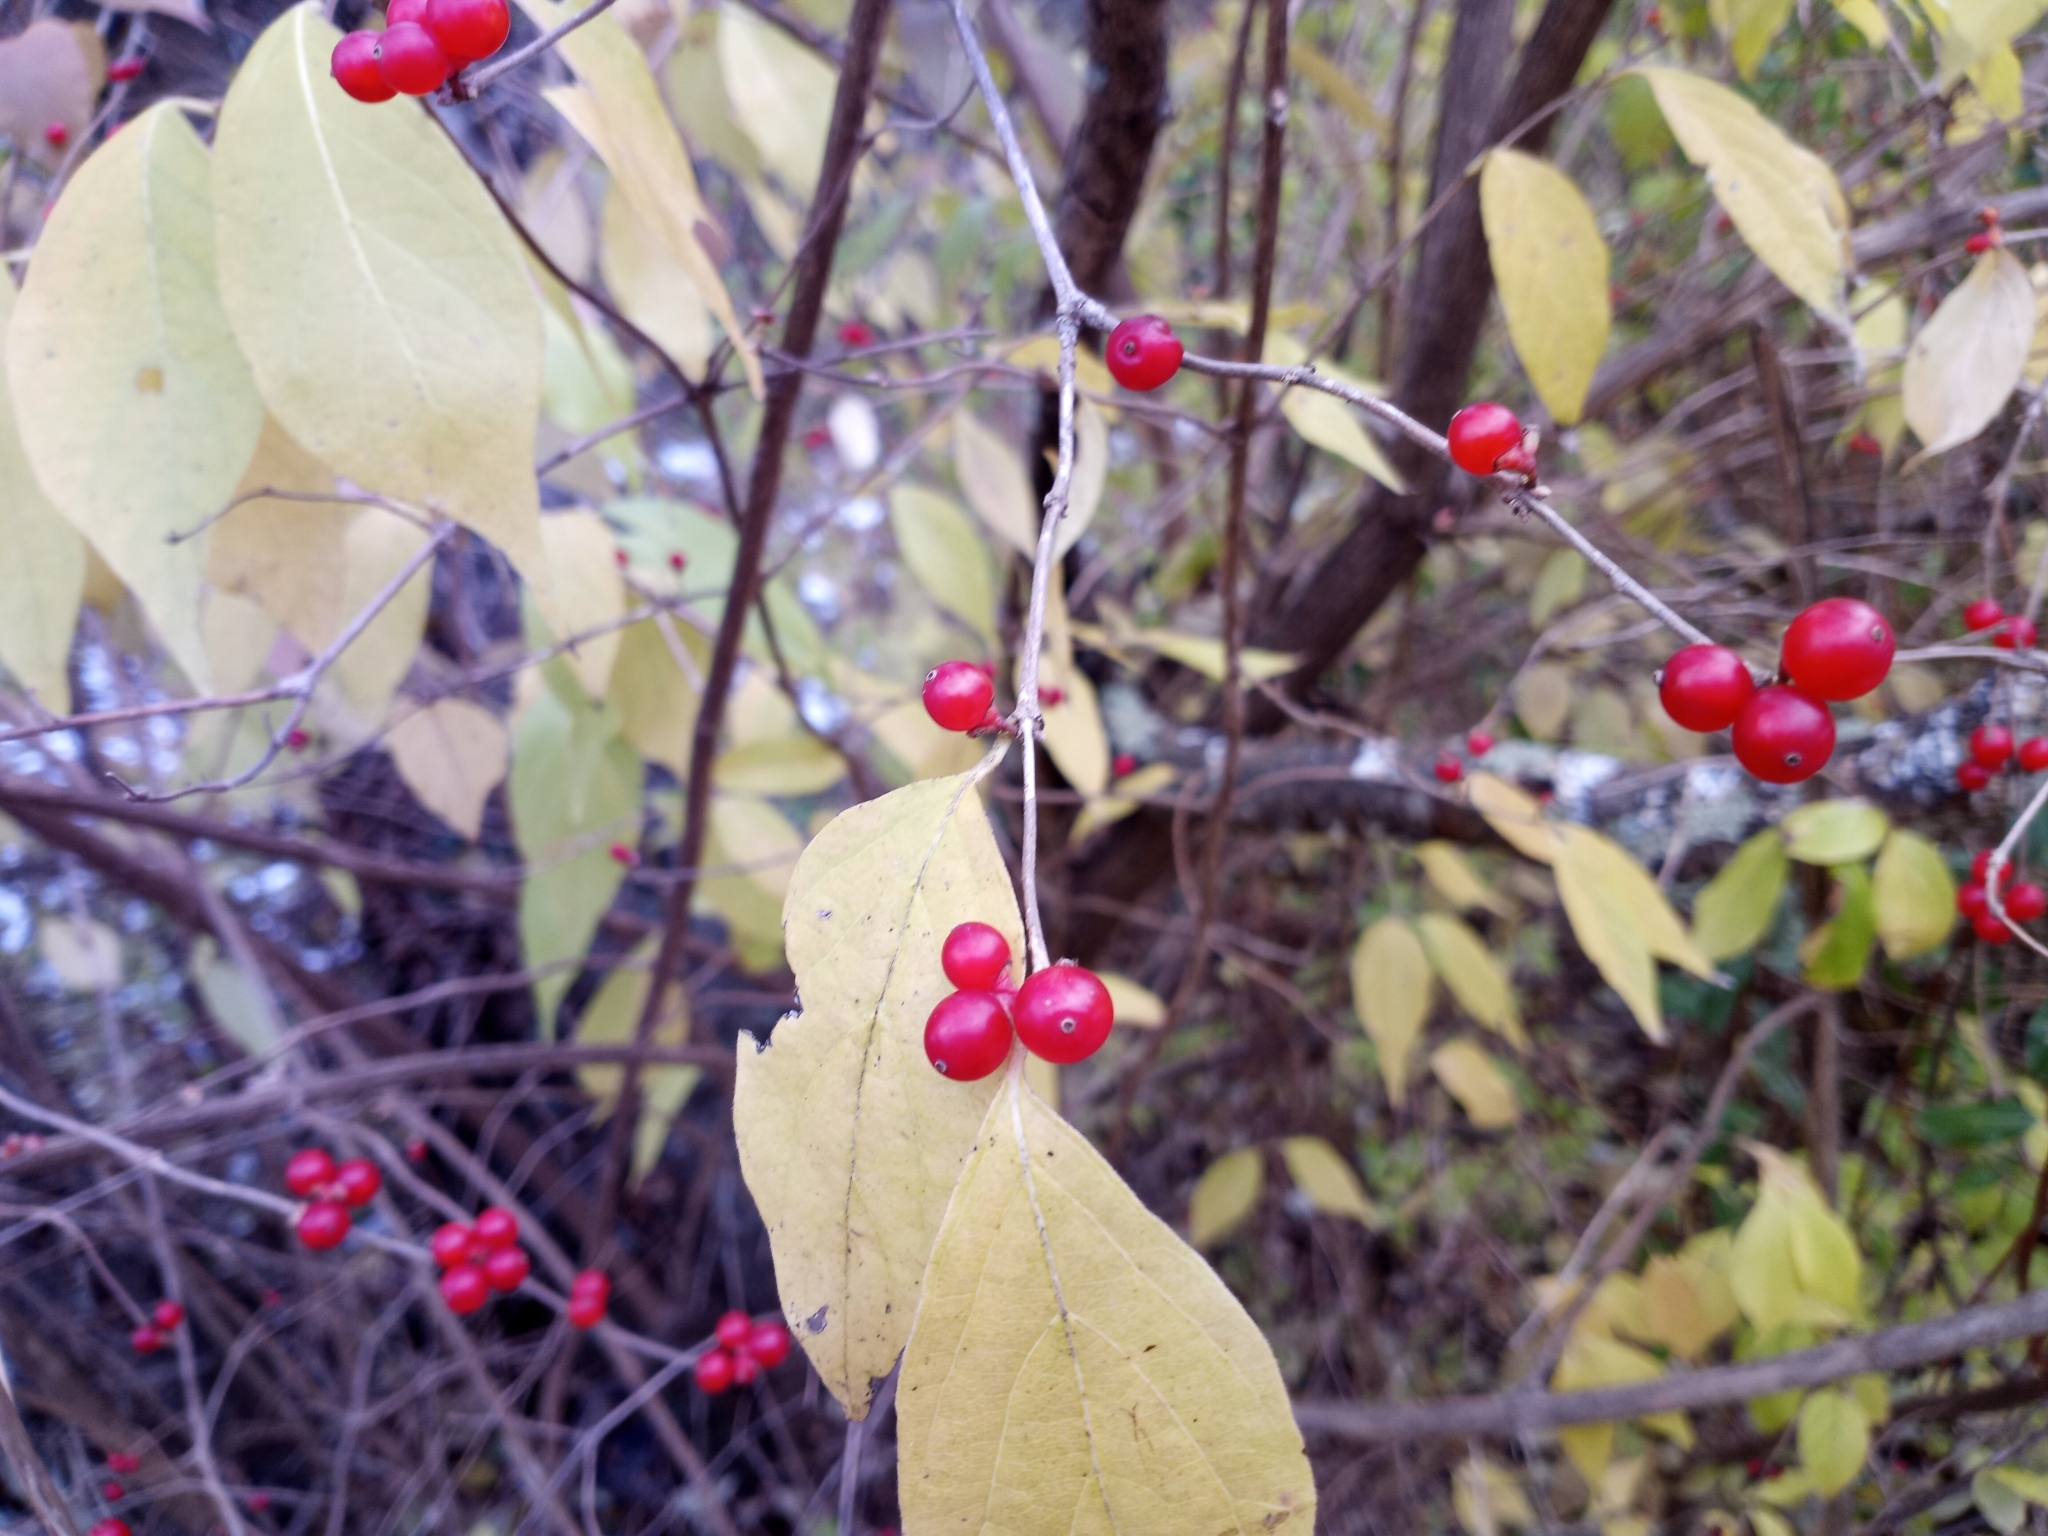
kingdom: Plantae
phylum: Tracheophyta
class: Magnoliopsida
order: Dipsacales
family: Caprifoliaceae
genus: Lonicera
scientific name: Lonicera maackii
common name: Amur honeysuckle
